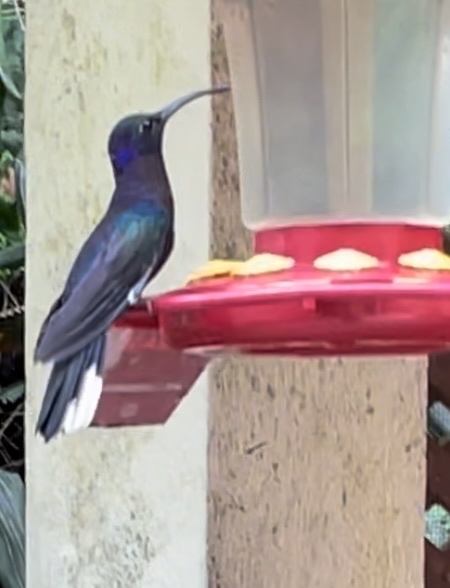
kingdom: Animalia
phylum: Chordata
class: Aves
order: Apodiformes
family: Trochilidae
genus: Campylopterus
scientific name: Campylopterus hemileucurus
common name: Violet sabrewing
